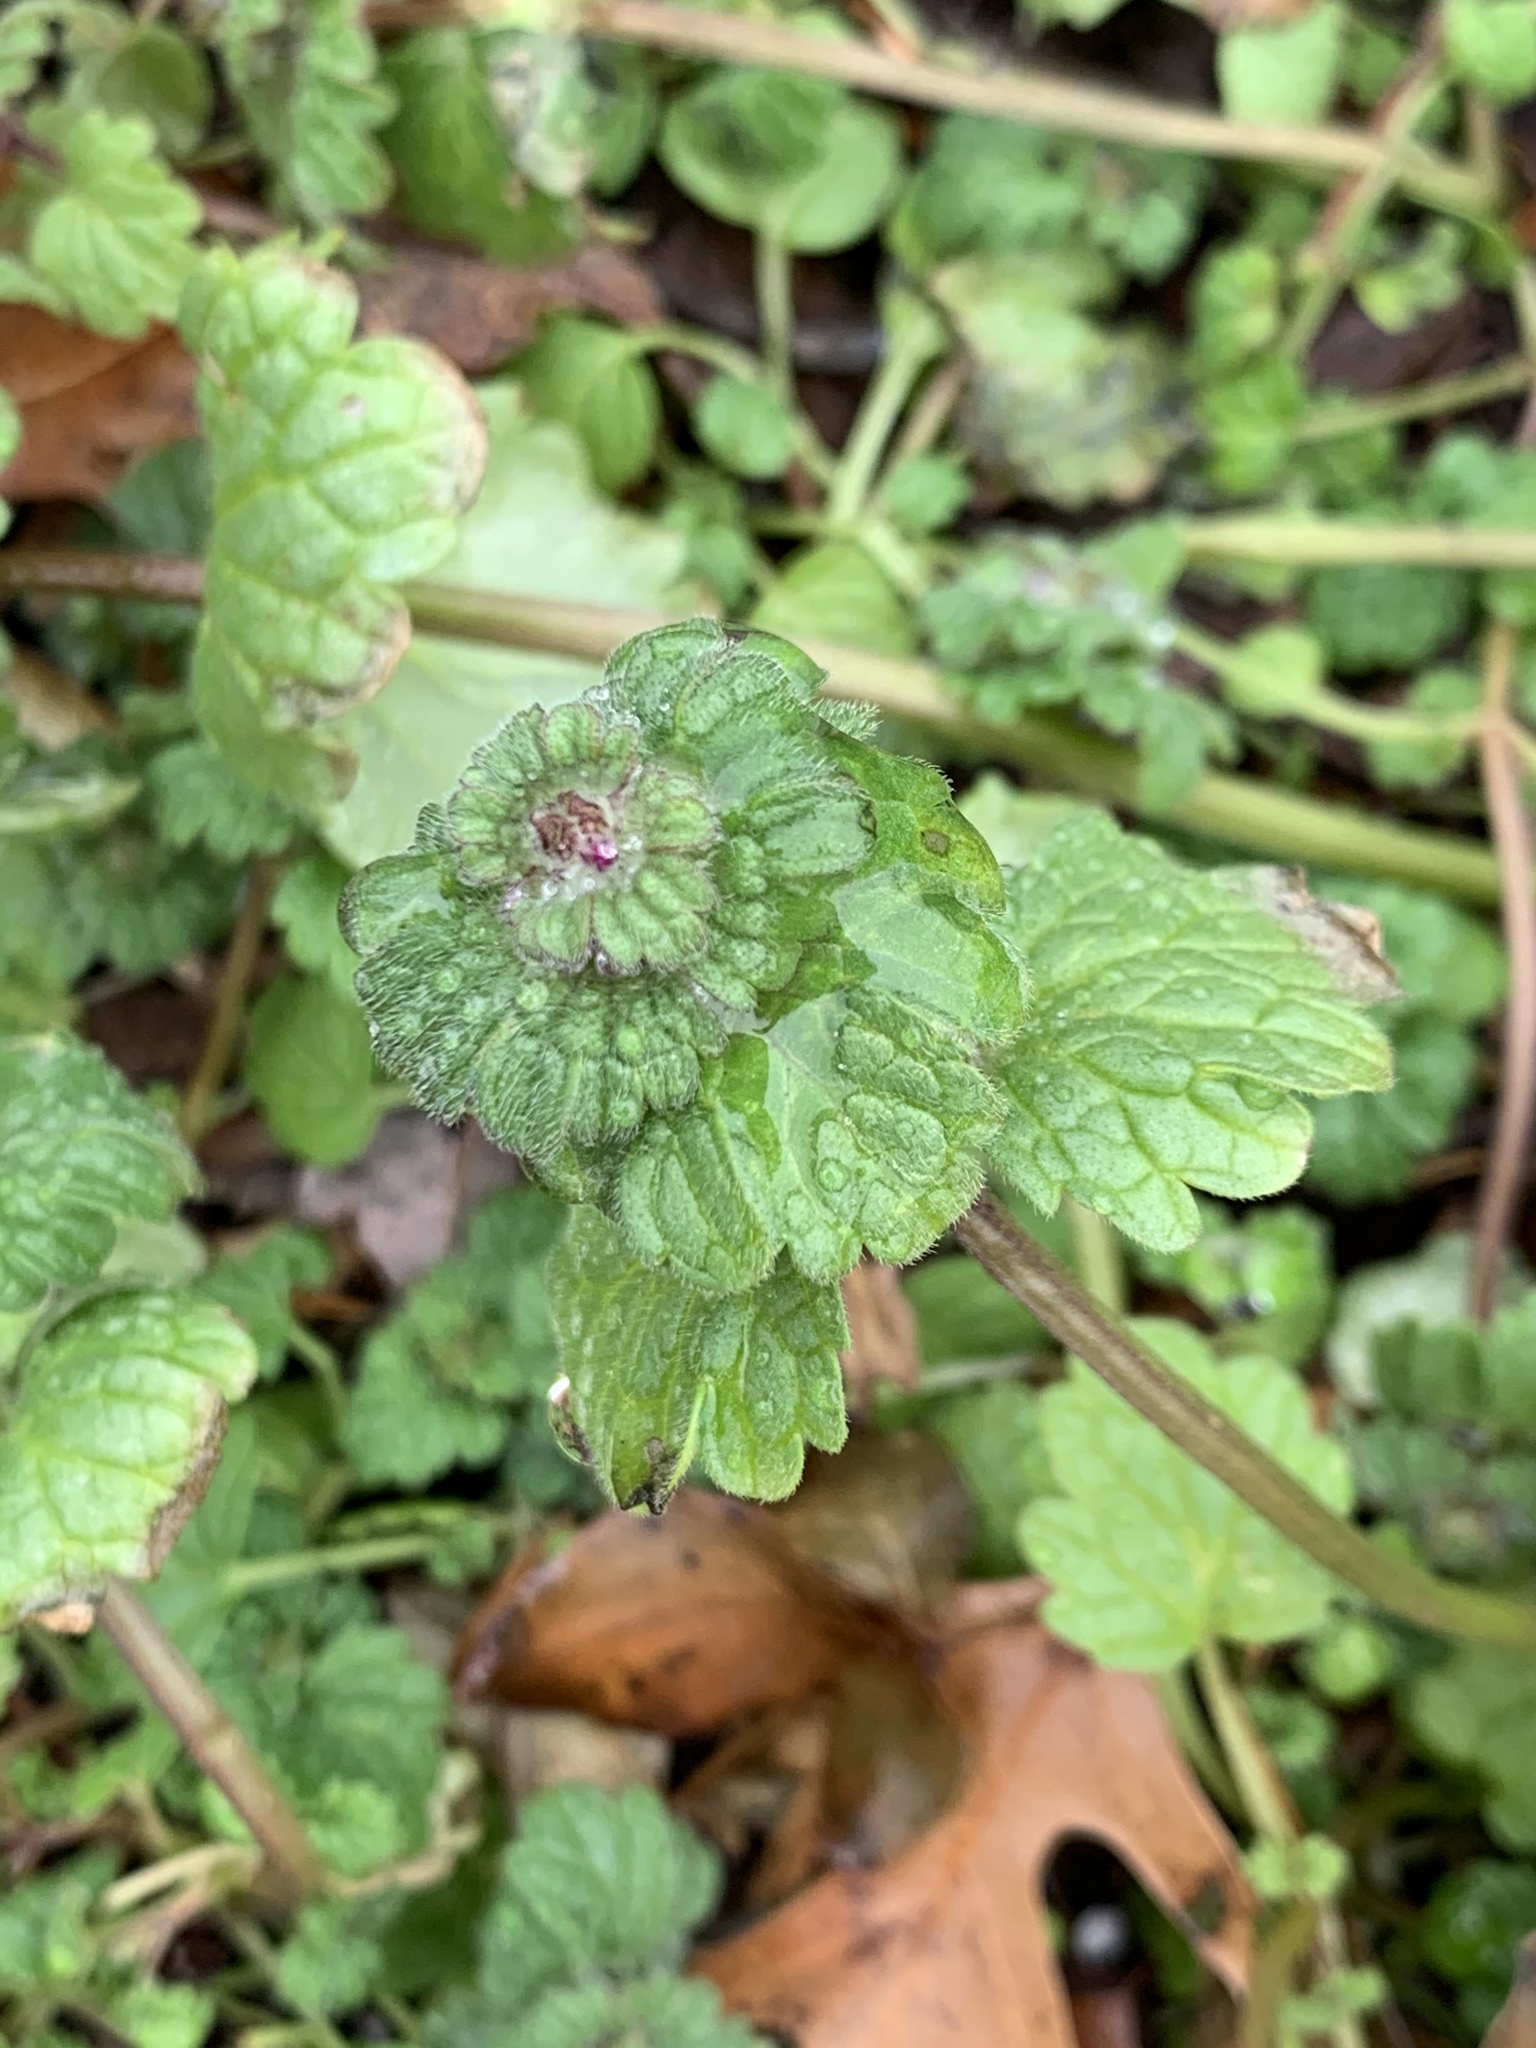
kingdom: Plantae
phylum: Tracheophyta
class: Magnoliopsida
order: Lamiales
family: Lamiaceae
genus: Lamium
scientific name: Lamium amplexicaule
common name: Henbit dead-nettle
